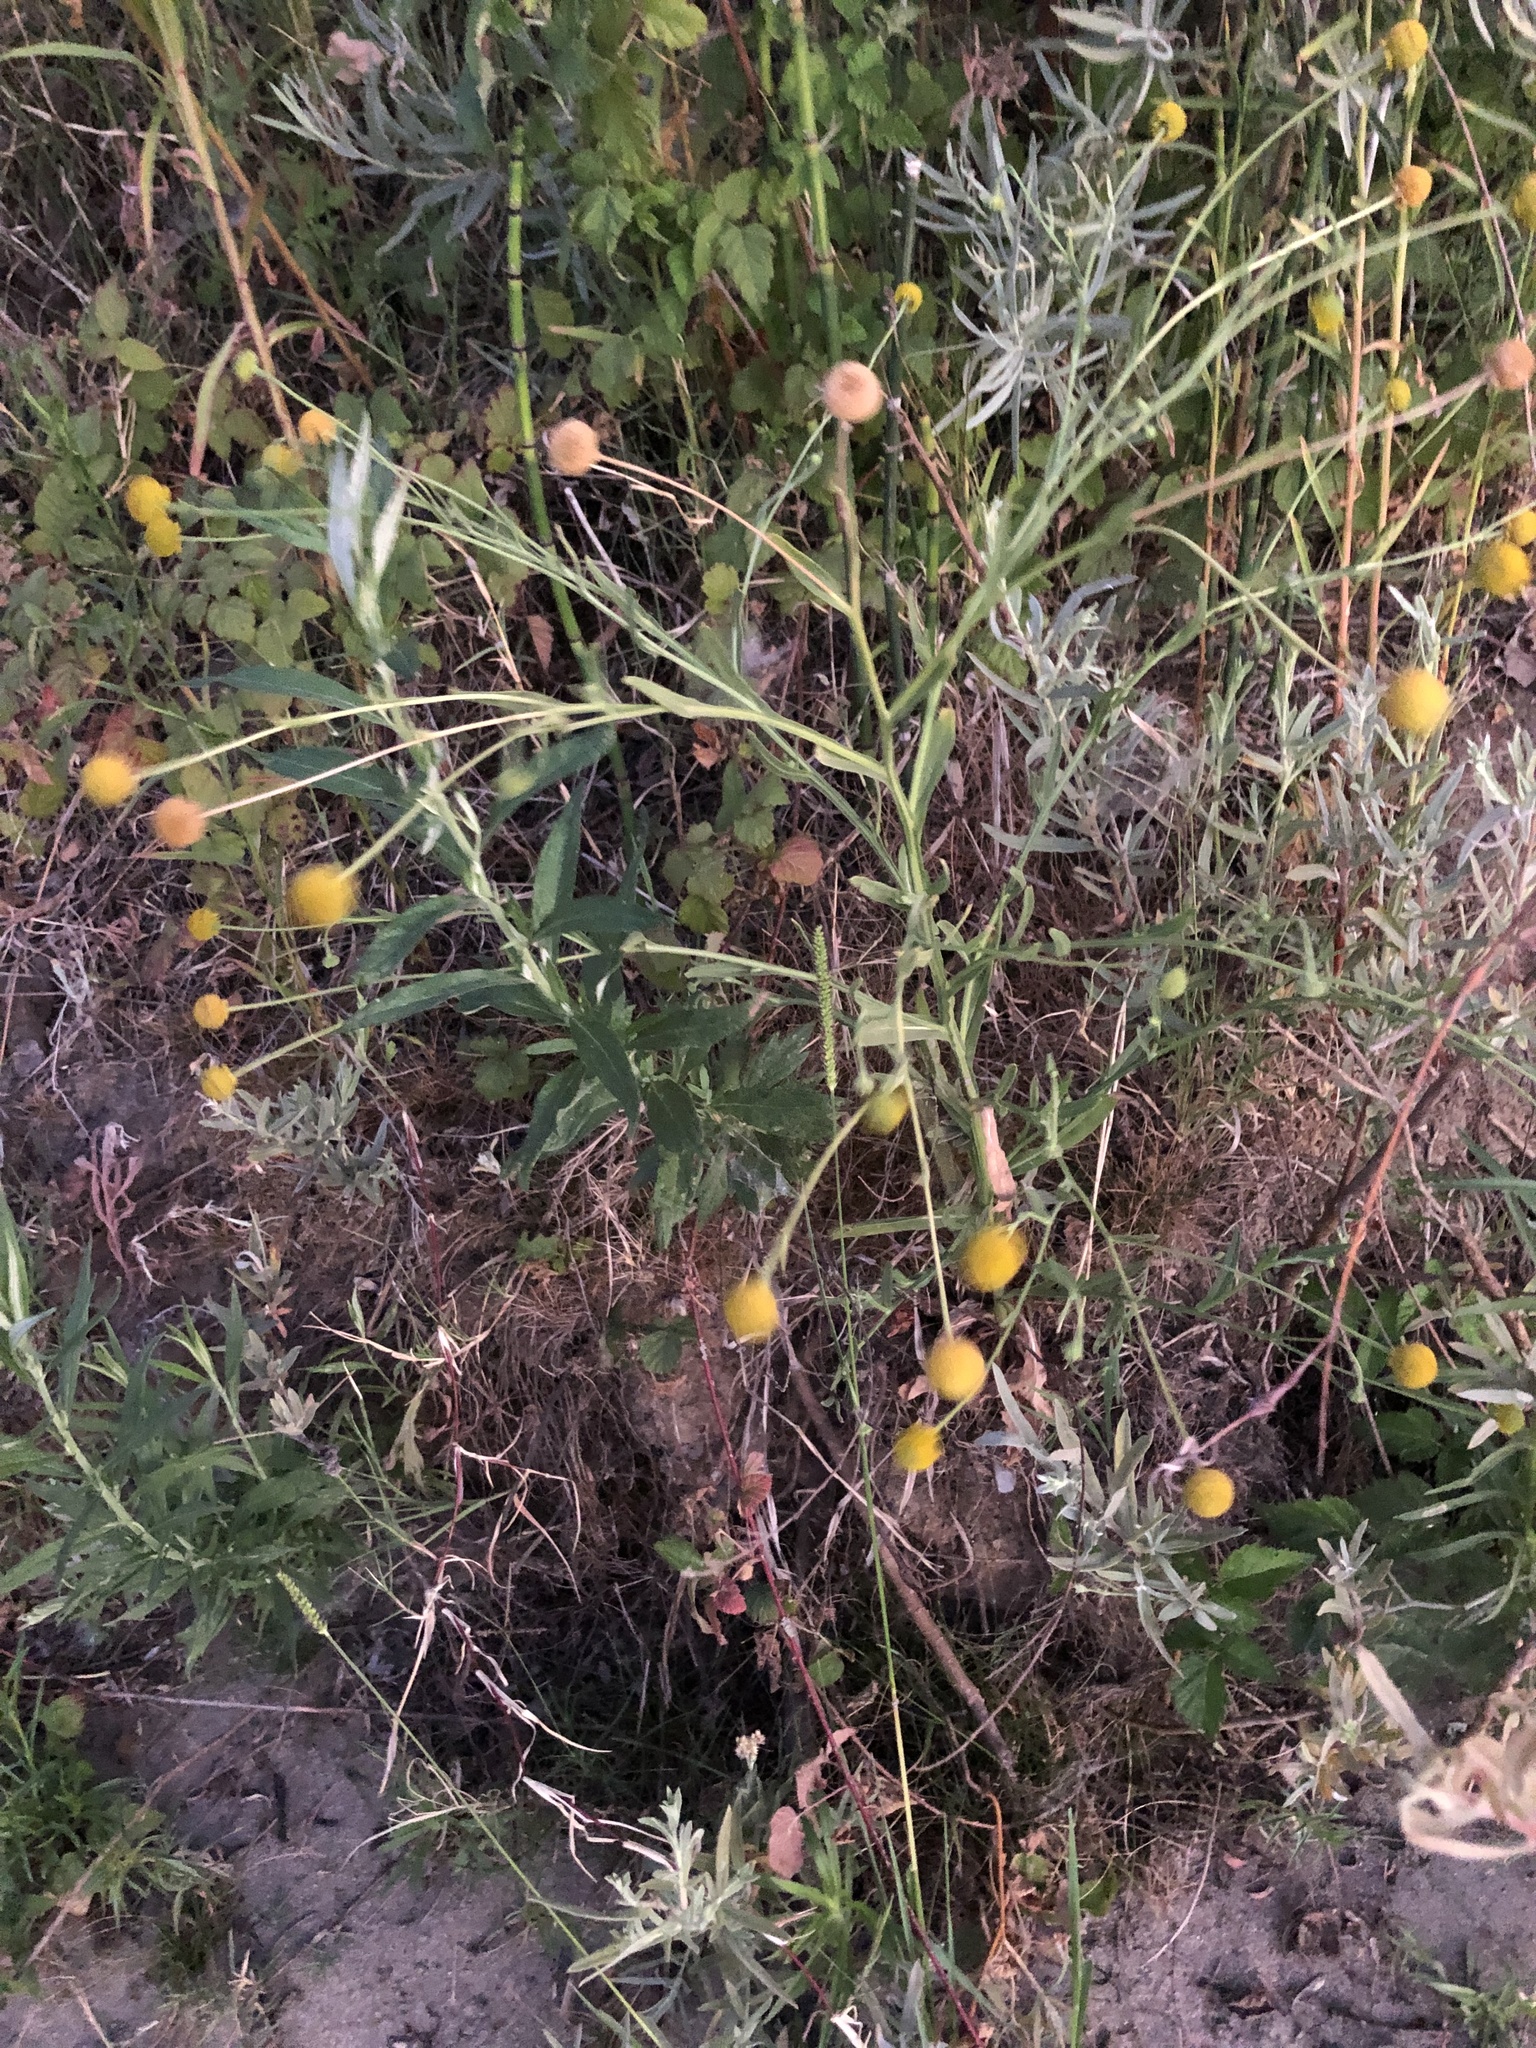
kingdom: Plantae
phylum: Tracheophyta
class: Magnoliopsida
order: Asterales
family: Asteraceae
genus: Helenium
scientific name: Helenium puberulum
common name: Sneezewort
